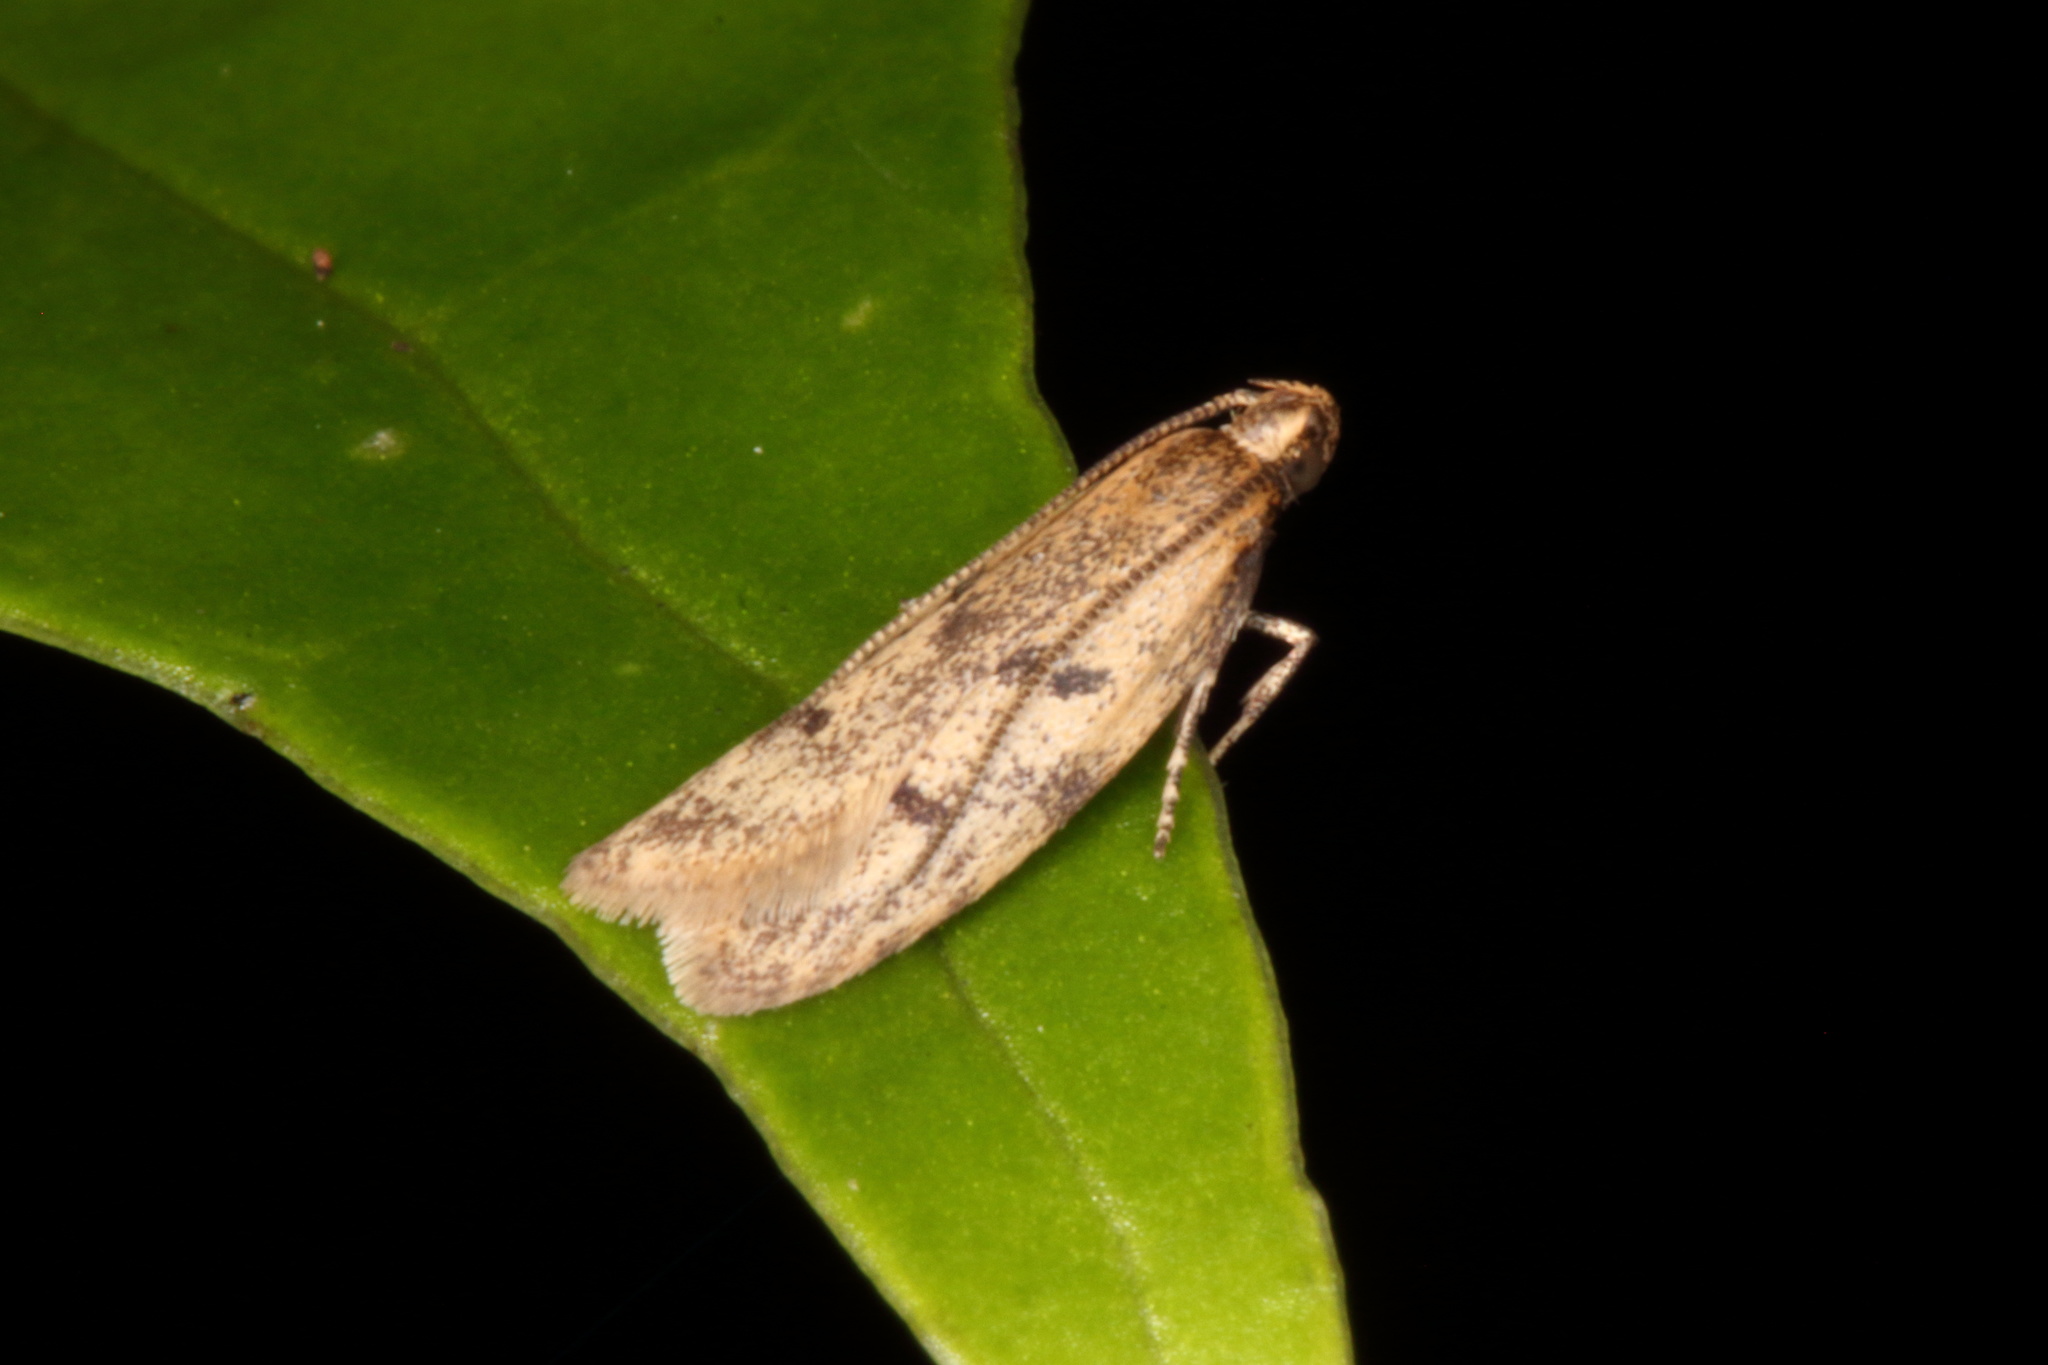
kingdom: Animalia
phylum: Arthropoda
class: Insecta
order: Lepidoptera
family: Oecophoridae
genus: Gymnobathra
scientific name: Gymnobathra tholodella
